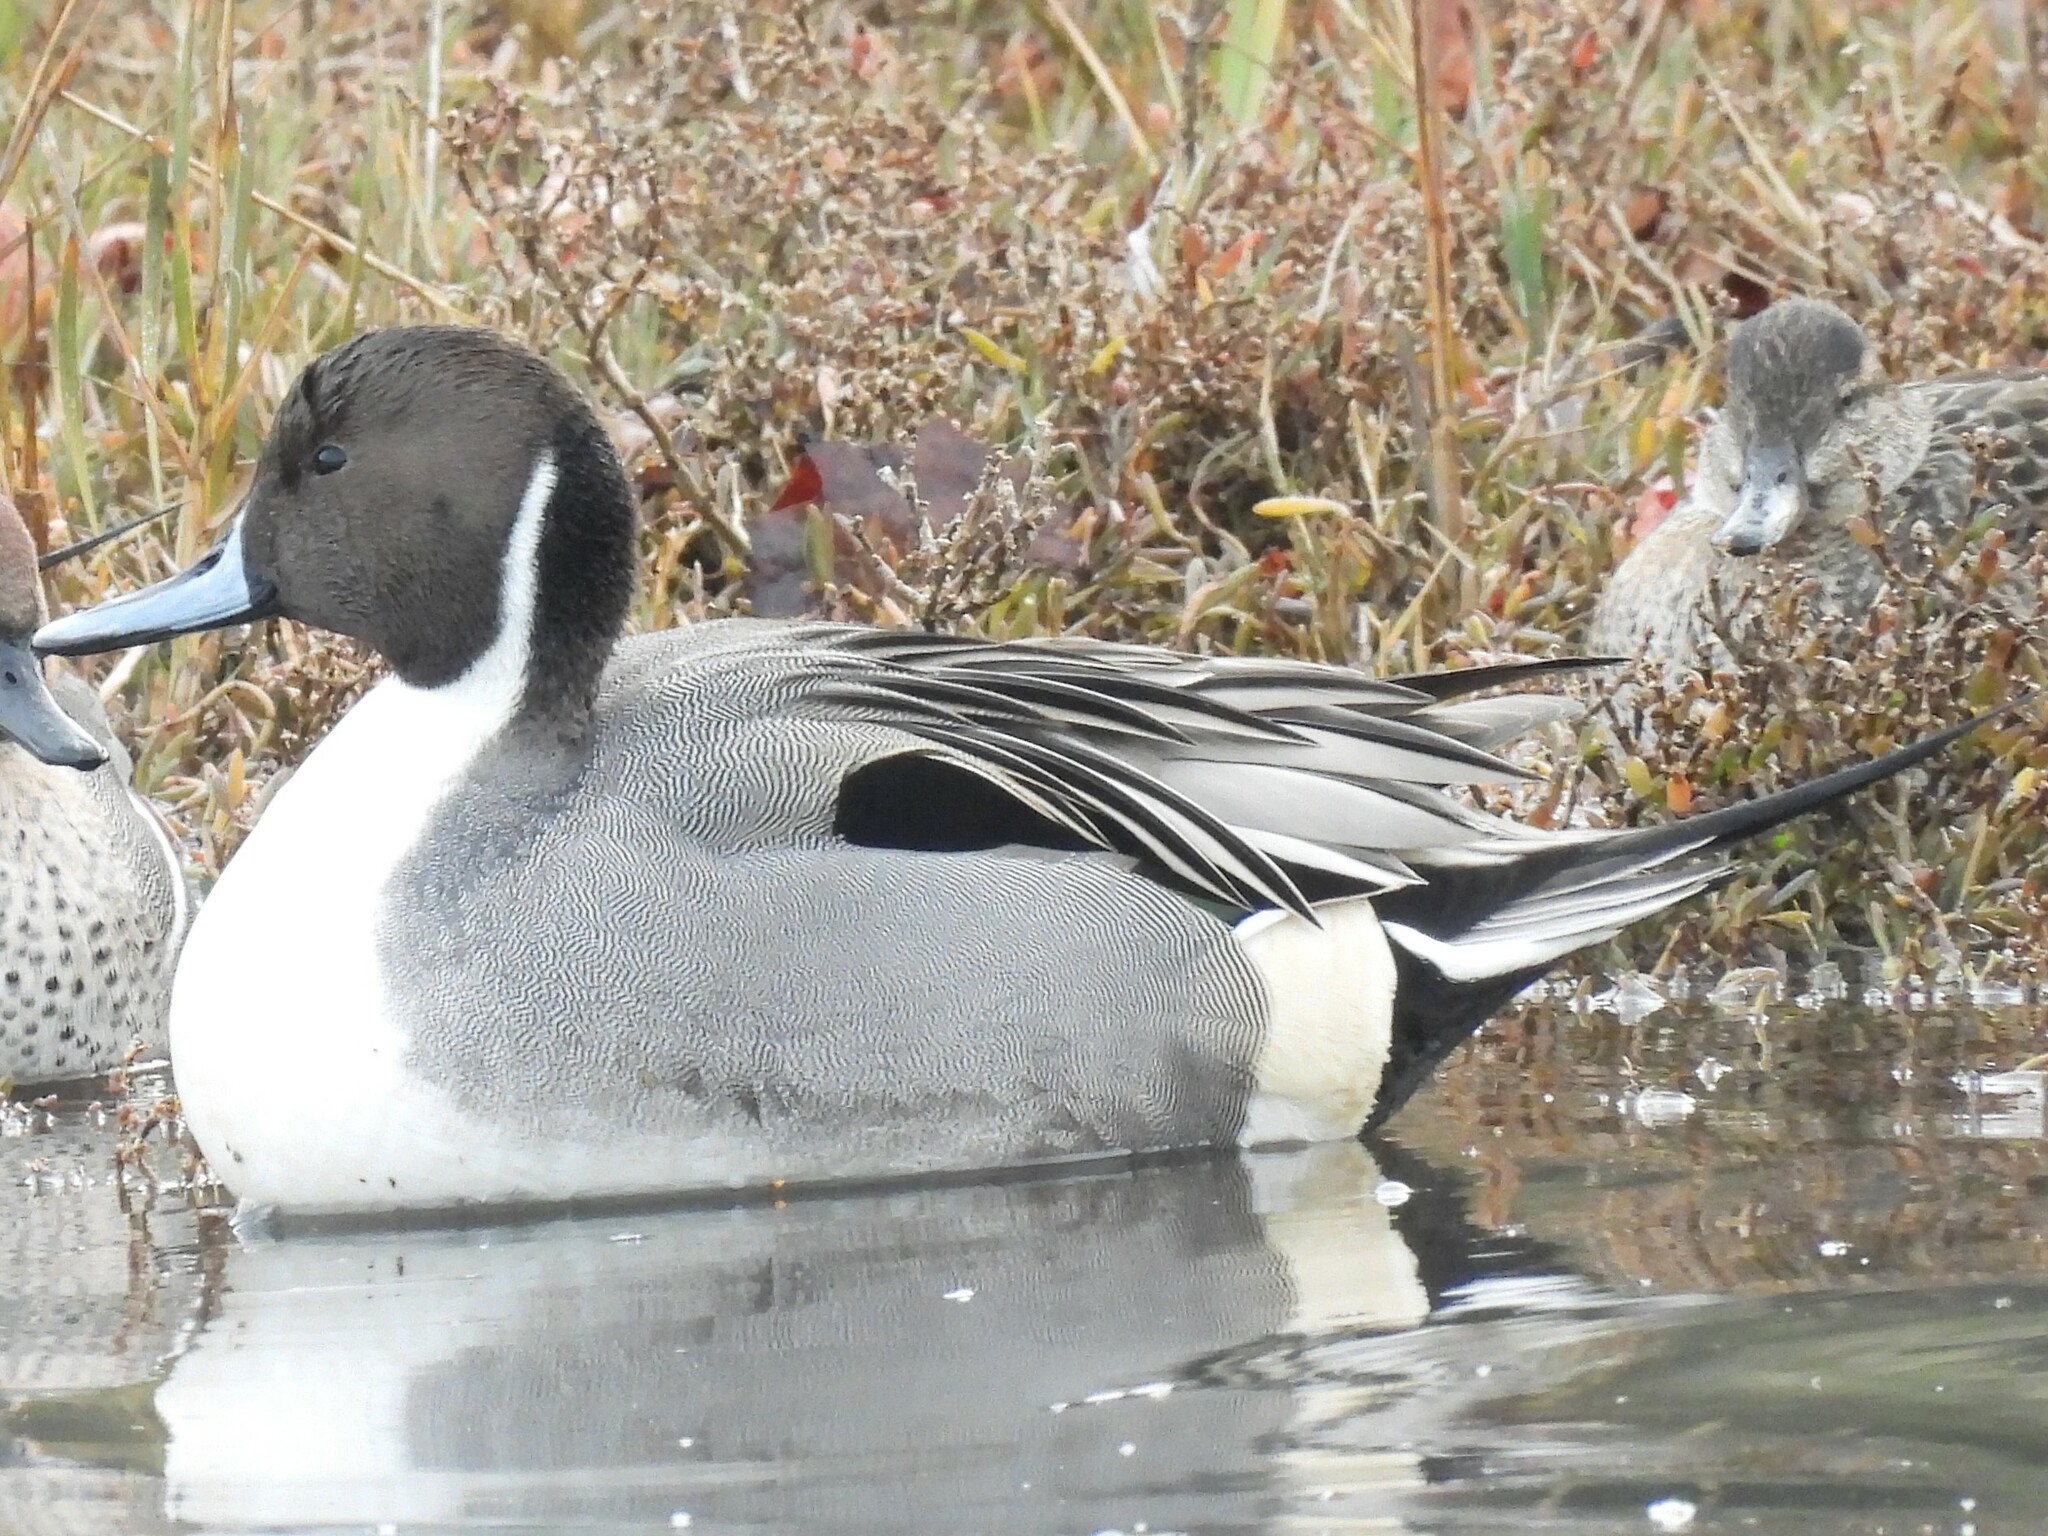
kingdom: Animalia
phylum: Chordata
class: Aves
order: Anseriformes
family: Anatidae
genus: Anas
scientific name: Anas acuta
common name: Northern pintail
